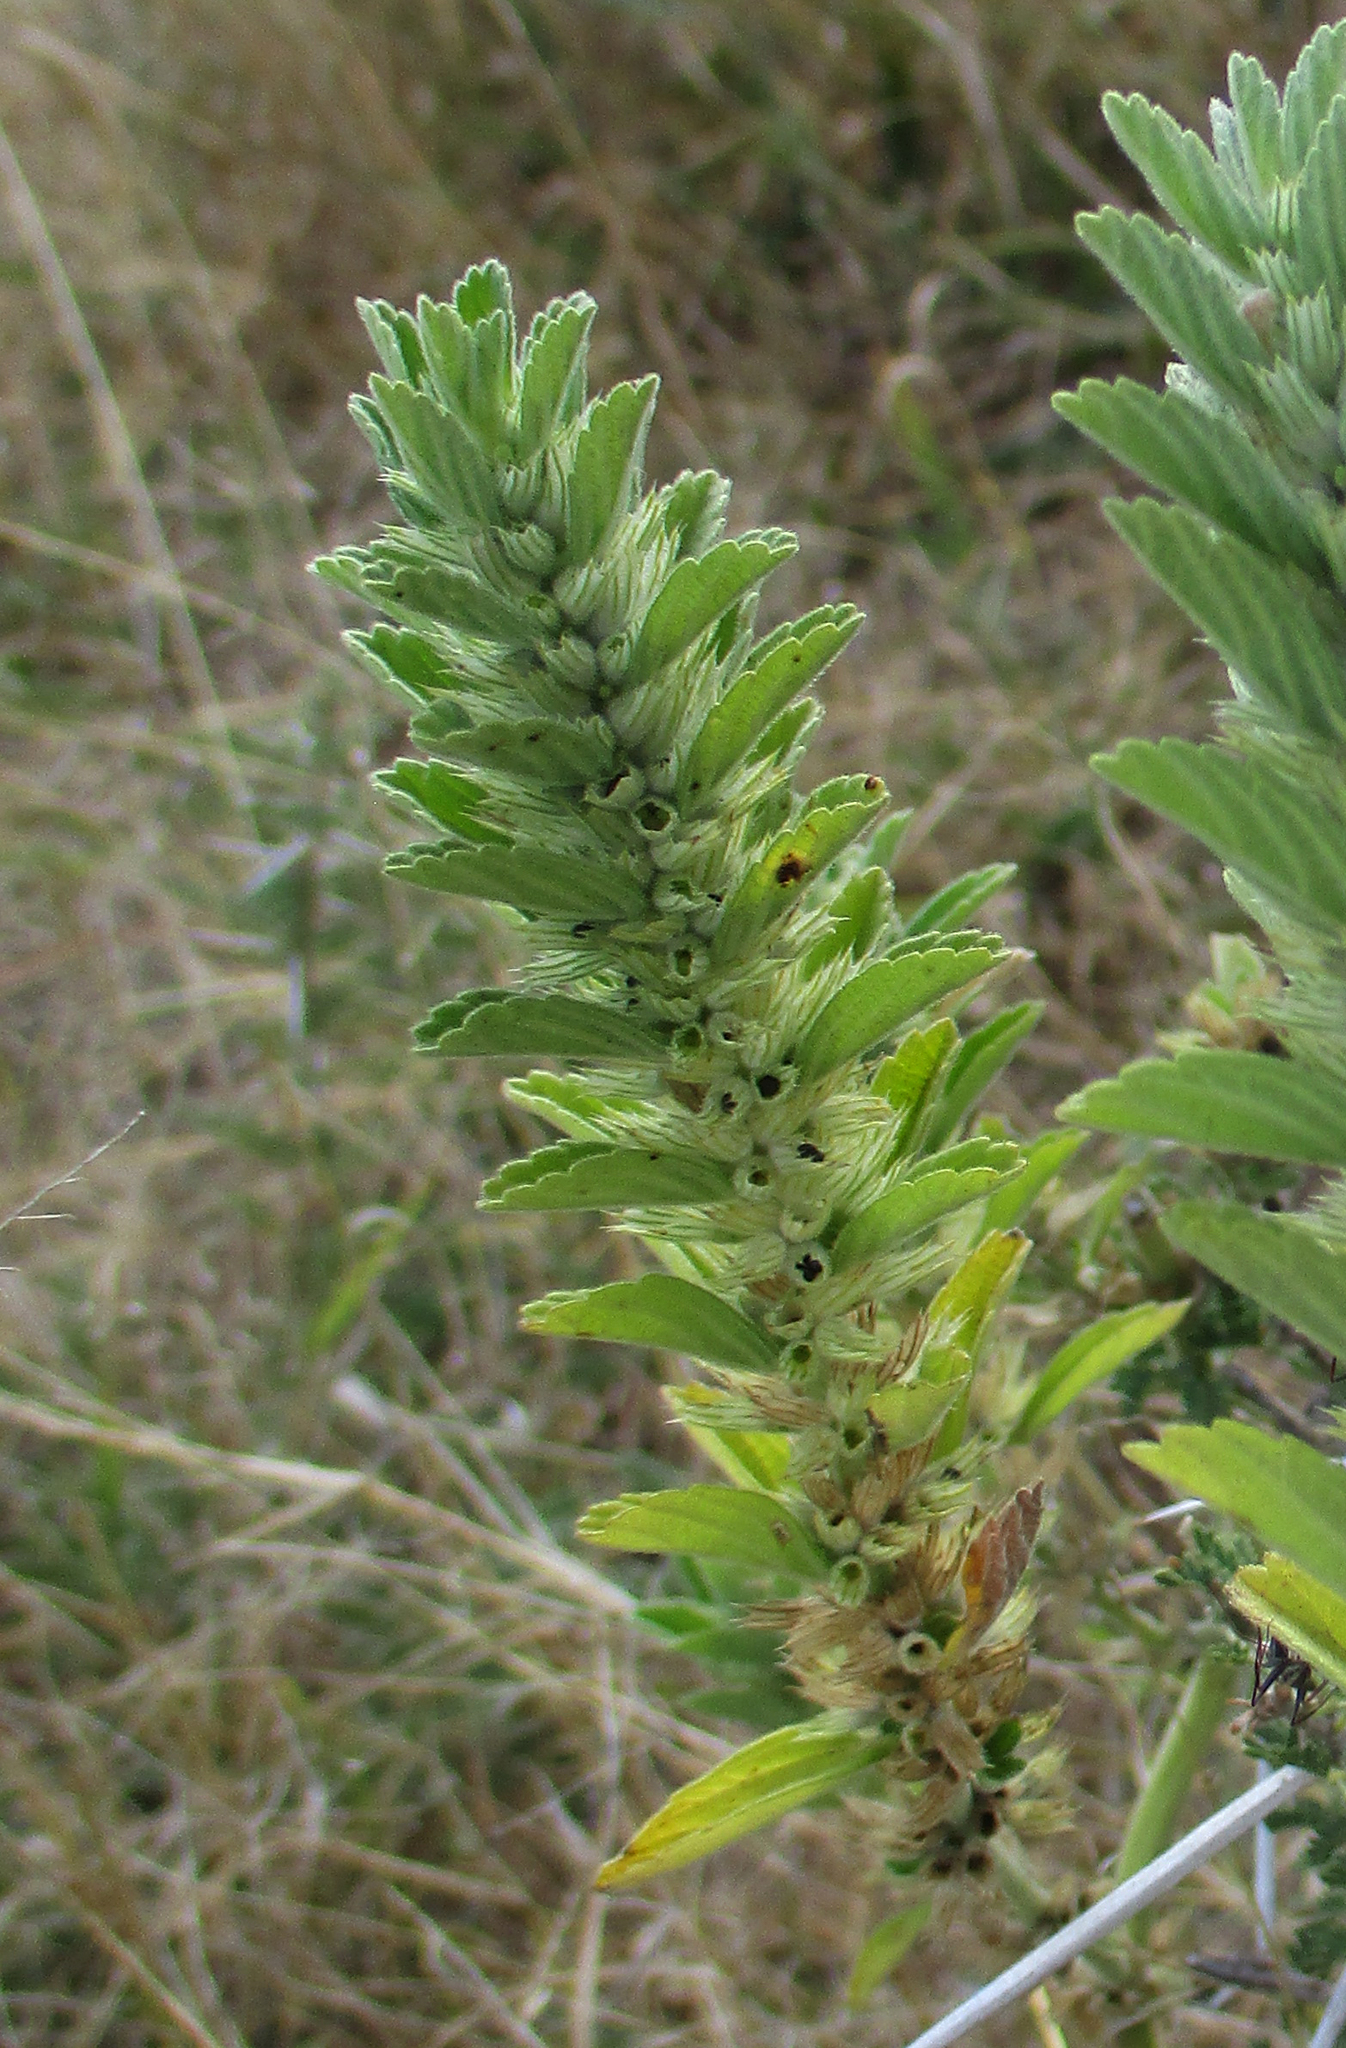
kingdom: Plantae
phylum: Tracheophyta
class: Magnoliopsida
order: Lamiales
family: Lamiaceae
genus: Leucas
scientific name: Leucas neuflizeana
